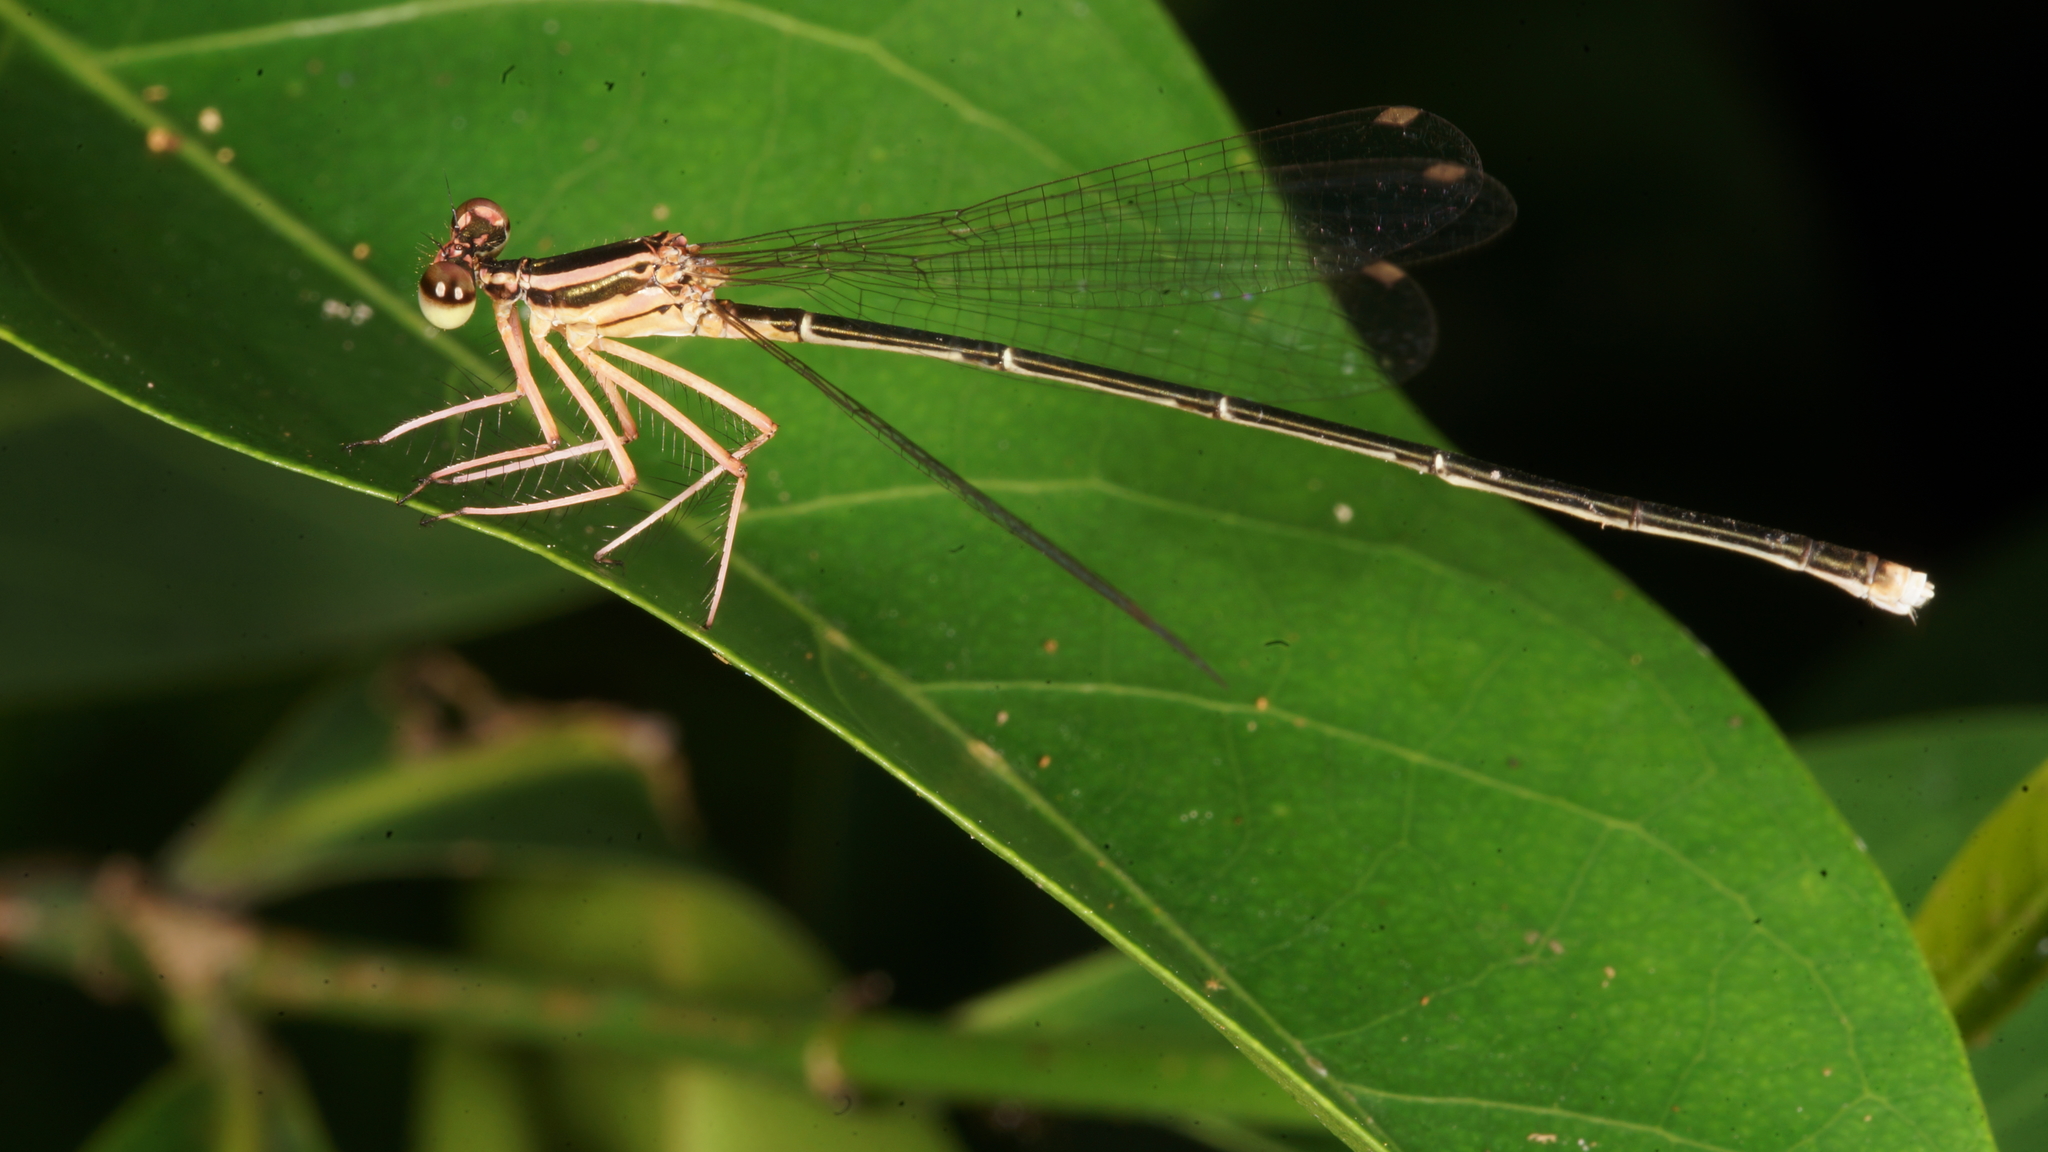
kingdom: Animalia
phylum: Arthropoda
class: Insecta
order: Odonata
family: Platycnemididae
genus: Pseudocopera
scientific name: Pseudocopera ciliata
